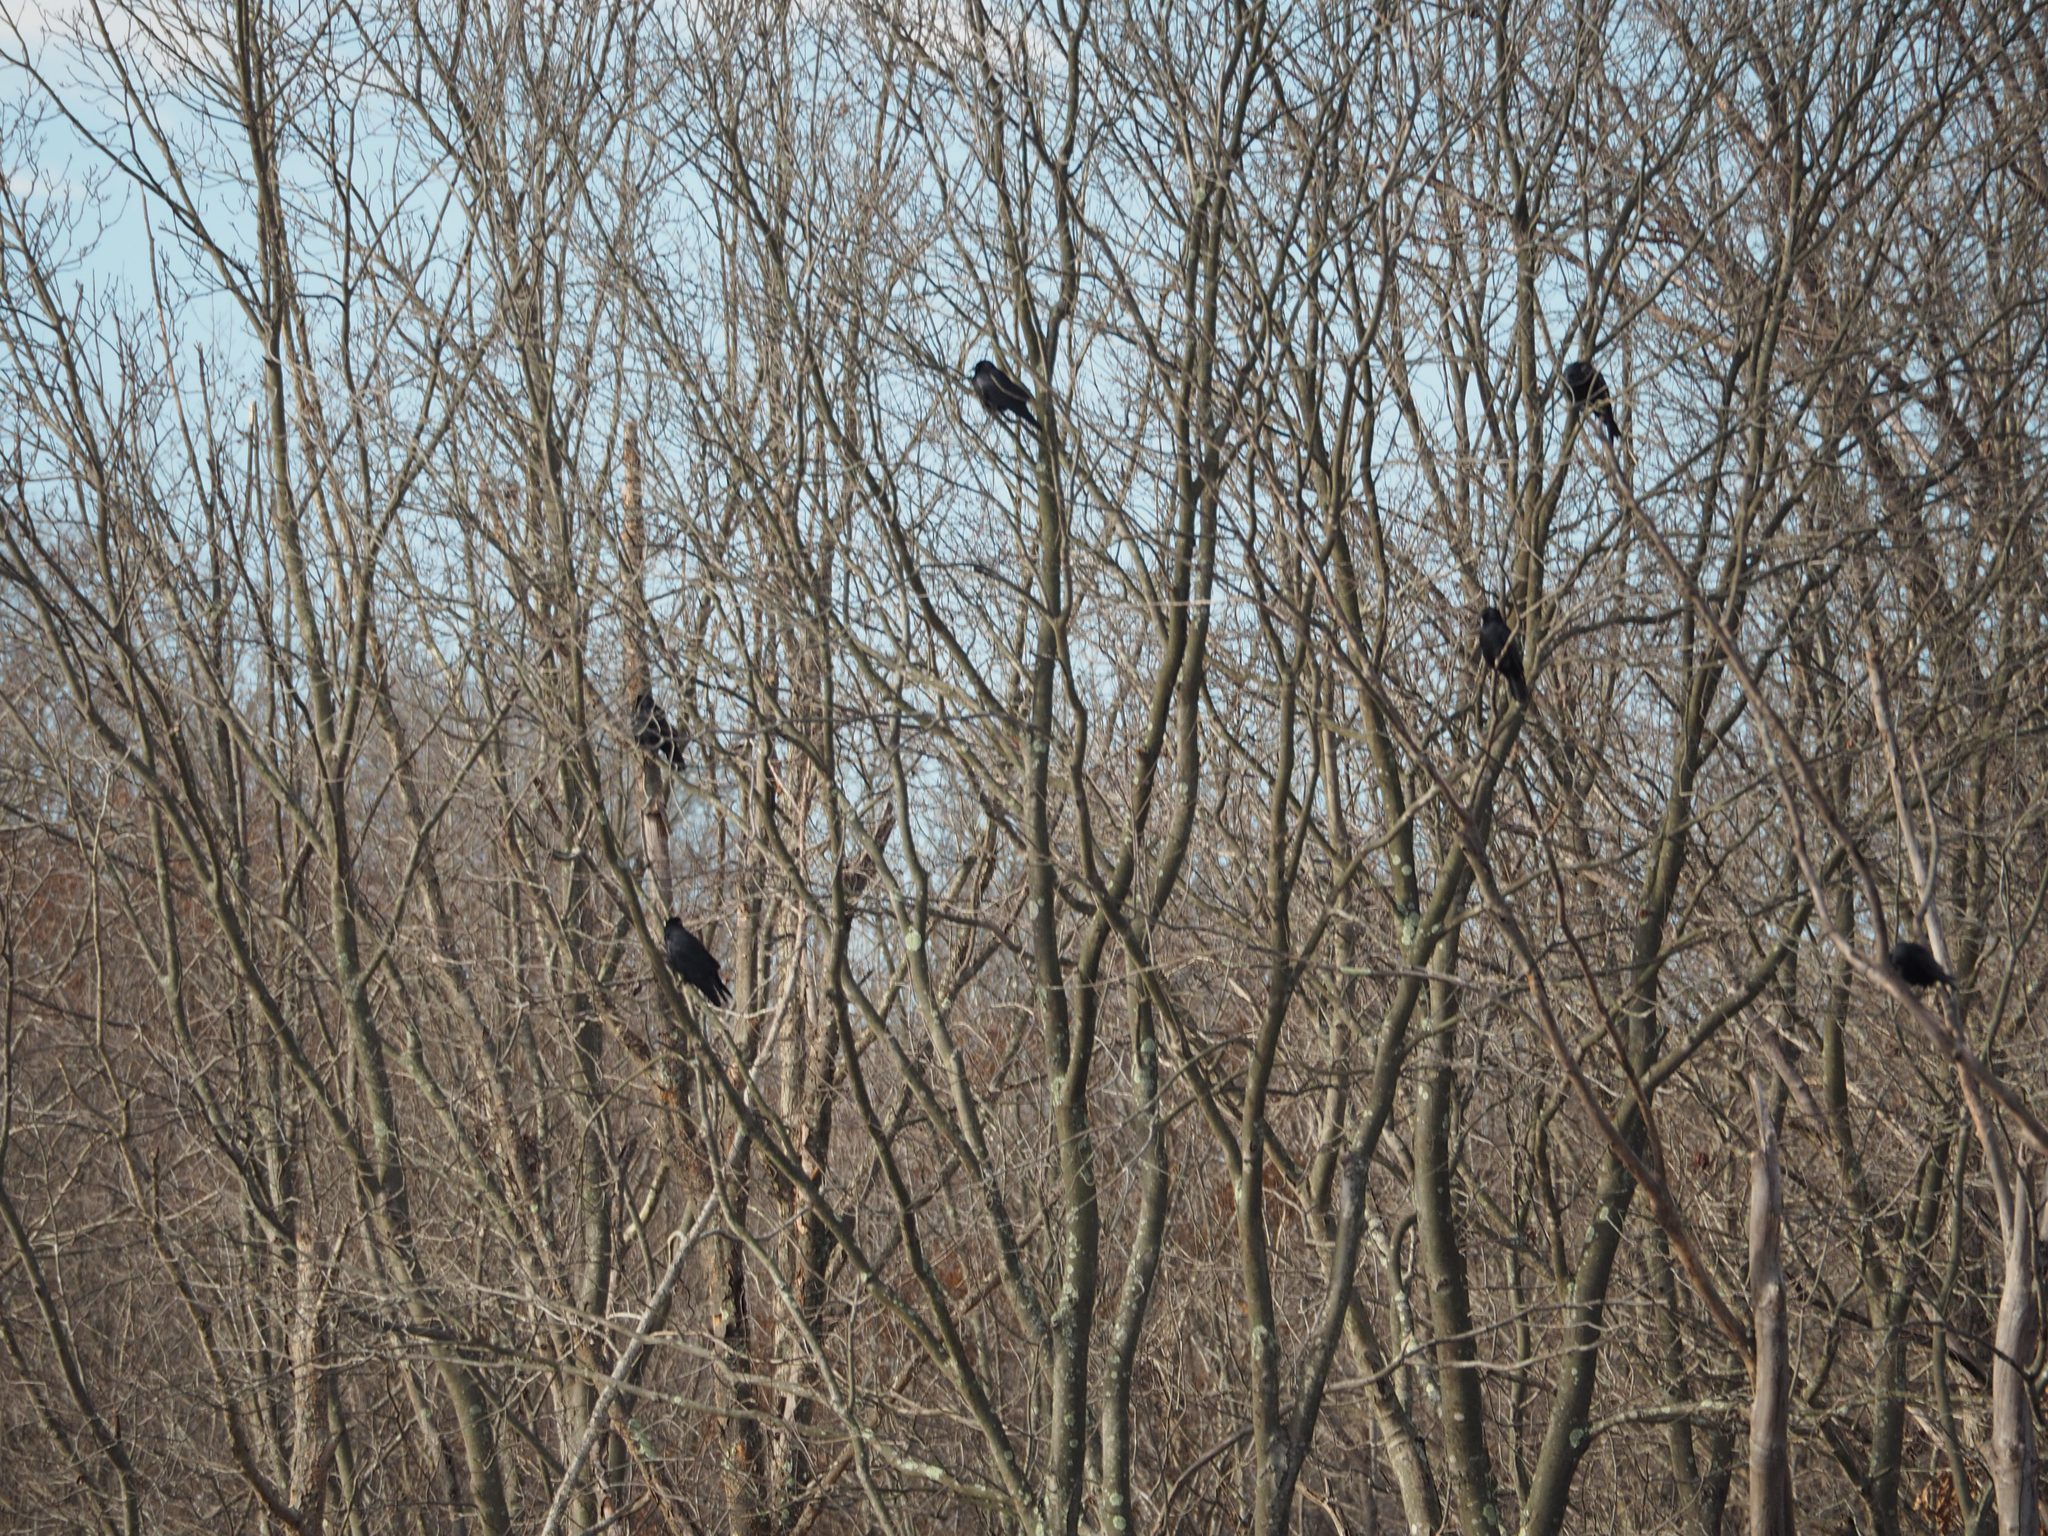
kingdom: Animalia
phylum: Chordata
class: Aves
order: Passeriformes
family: Corvidae
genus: Corvus
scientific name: Corvus ossifragus
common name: Fish crow
